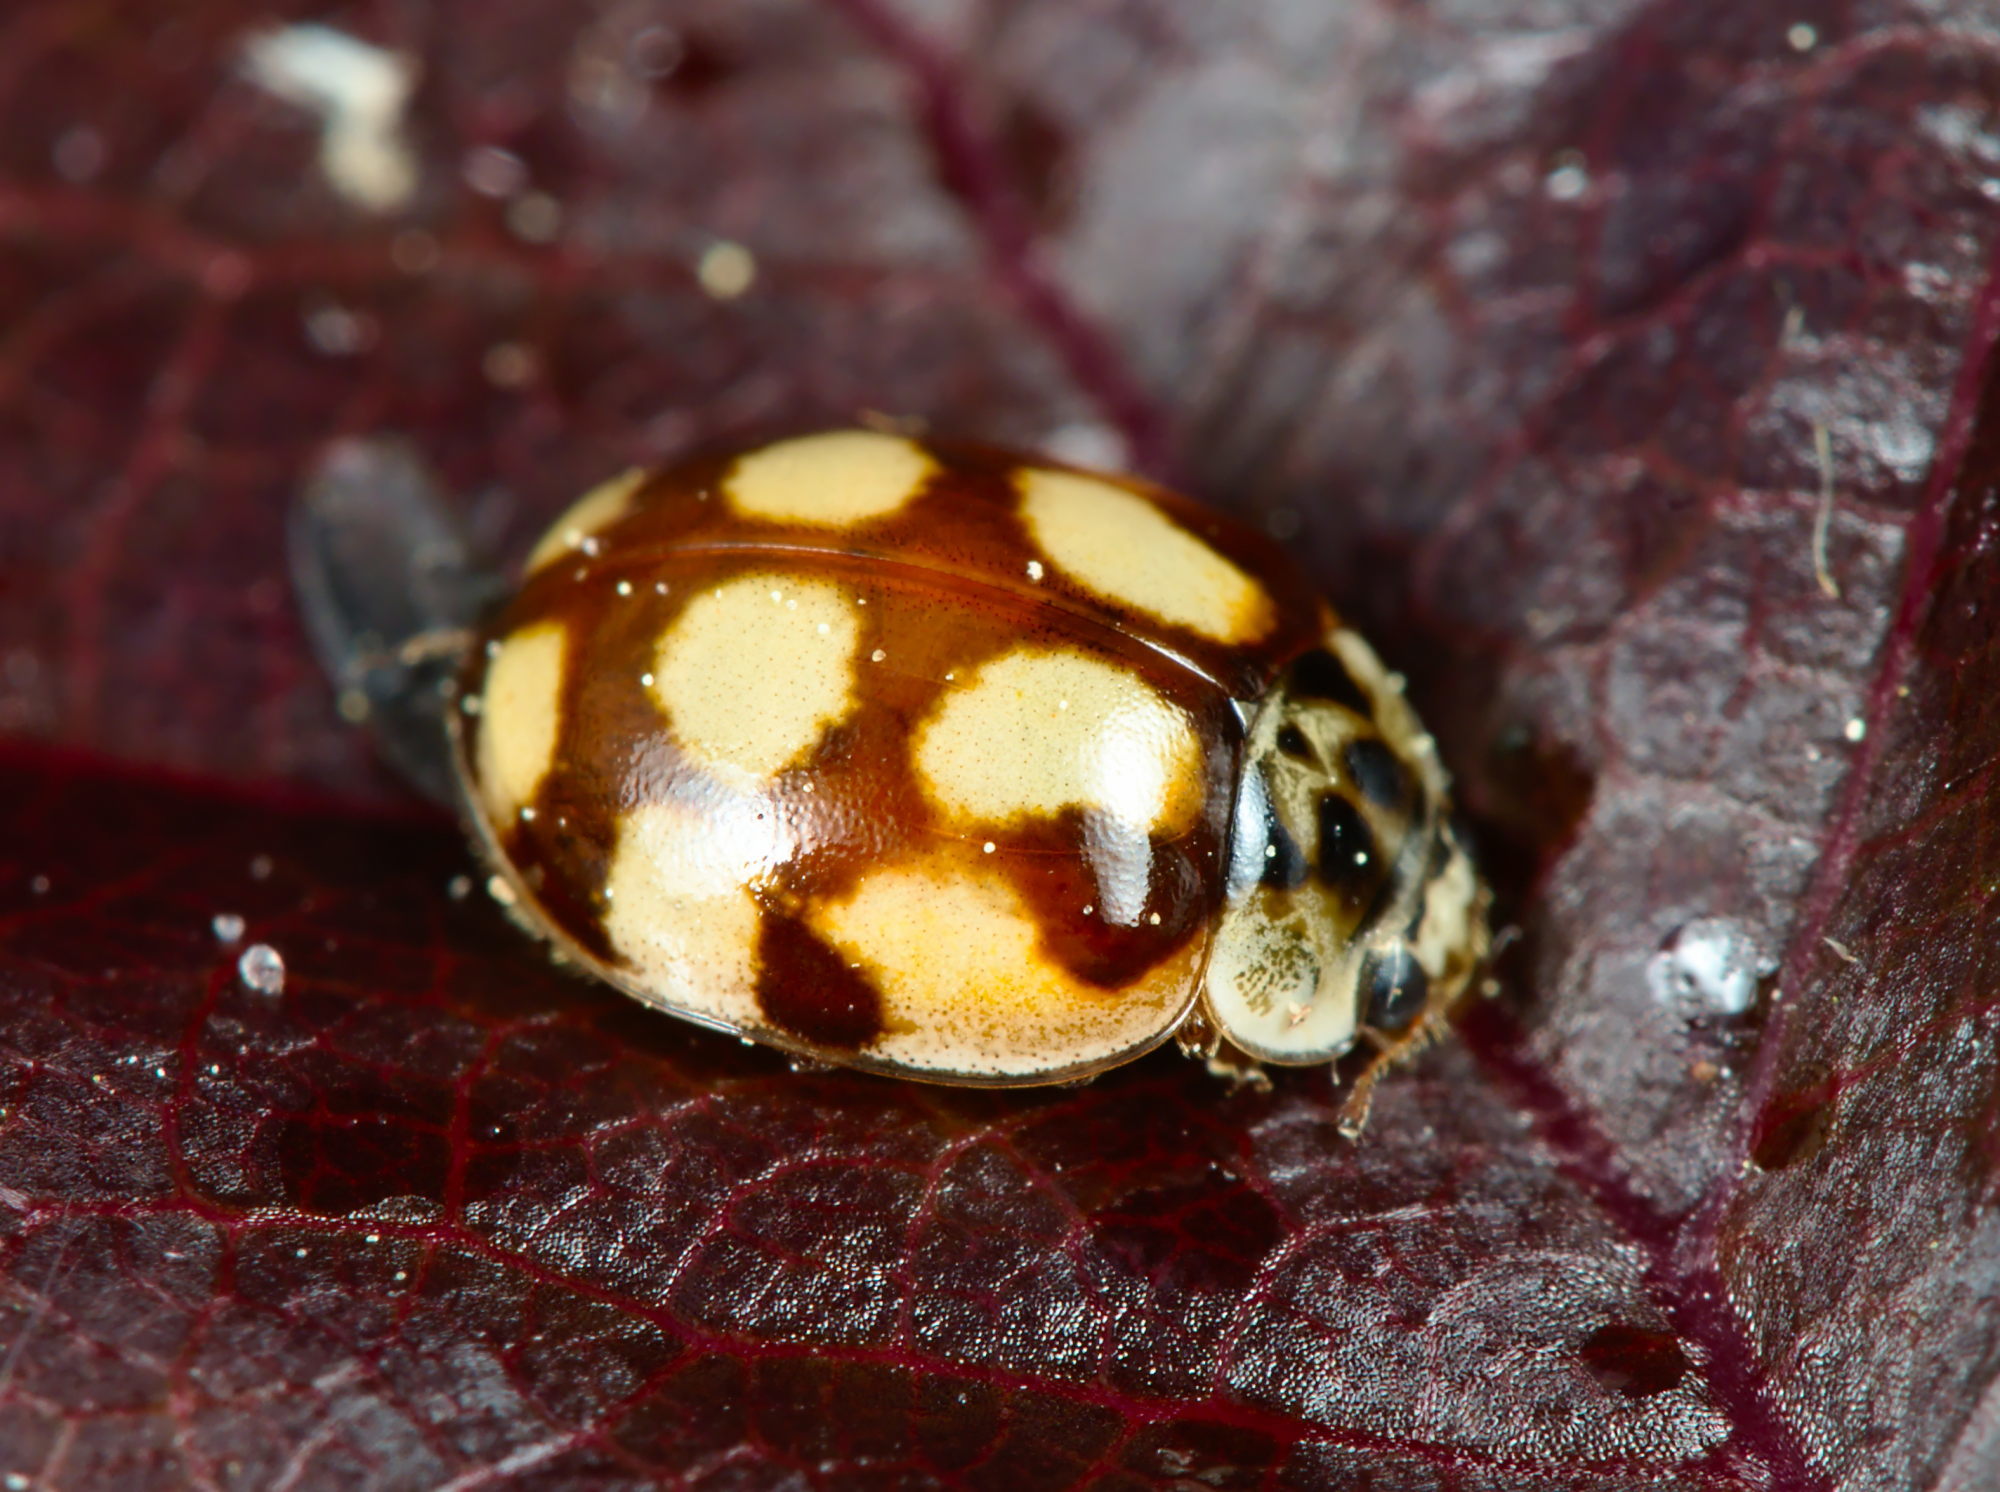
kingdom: Animalia
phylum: Arthropoda
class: Insecta
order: Coleoptera
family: Coccinellidae
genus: Adalia
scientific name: Adalia decempunctata
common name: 10-spot ladybird
